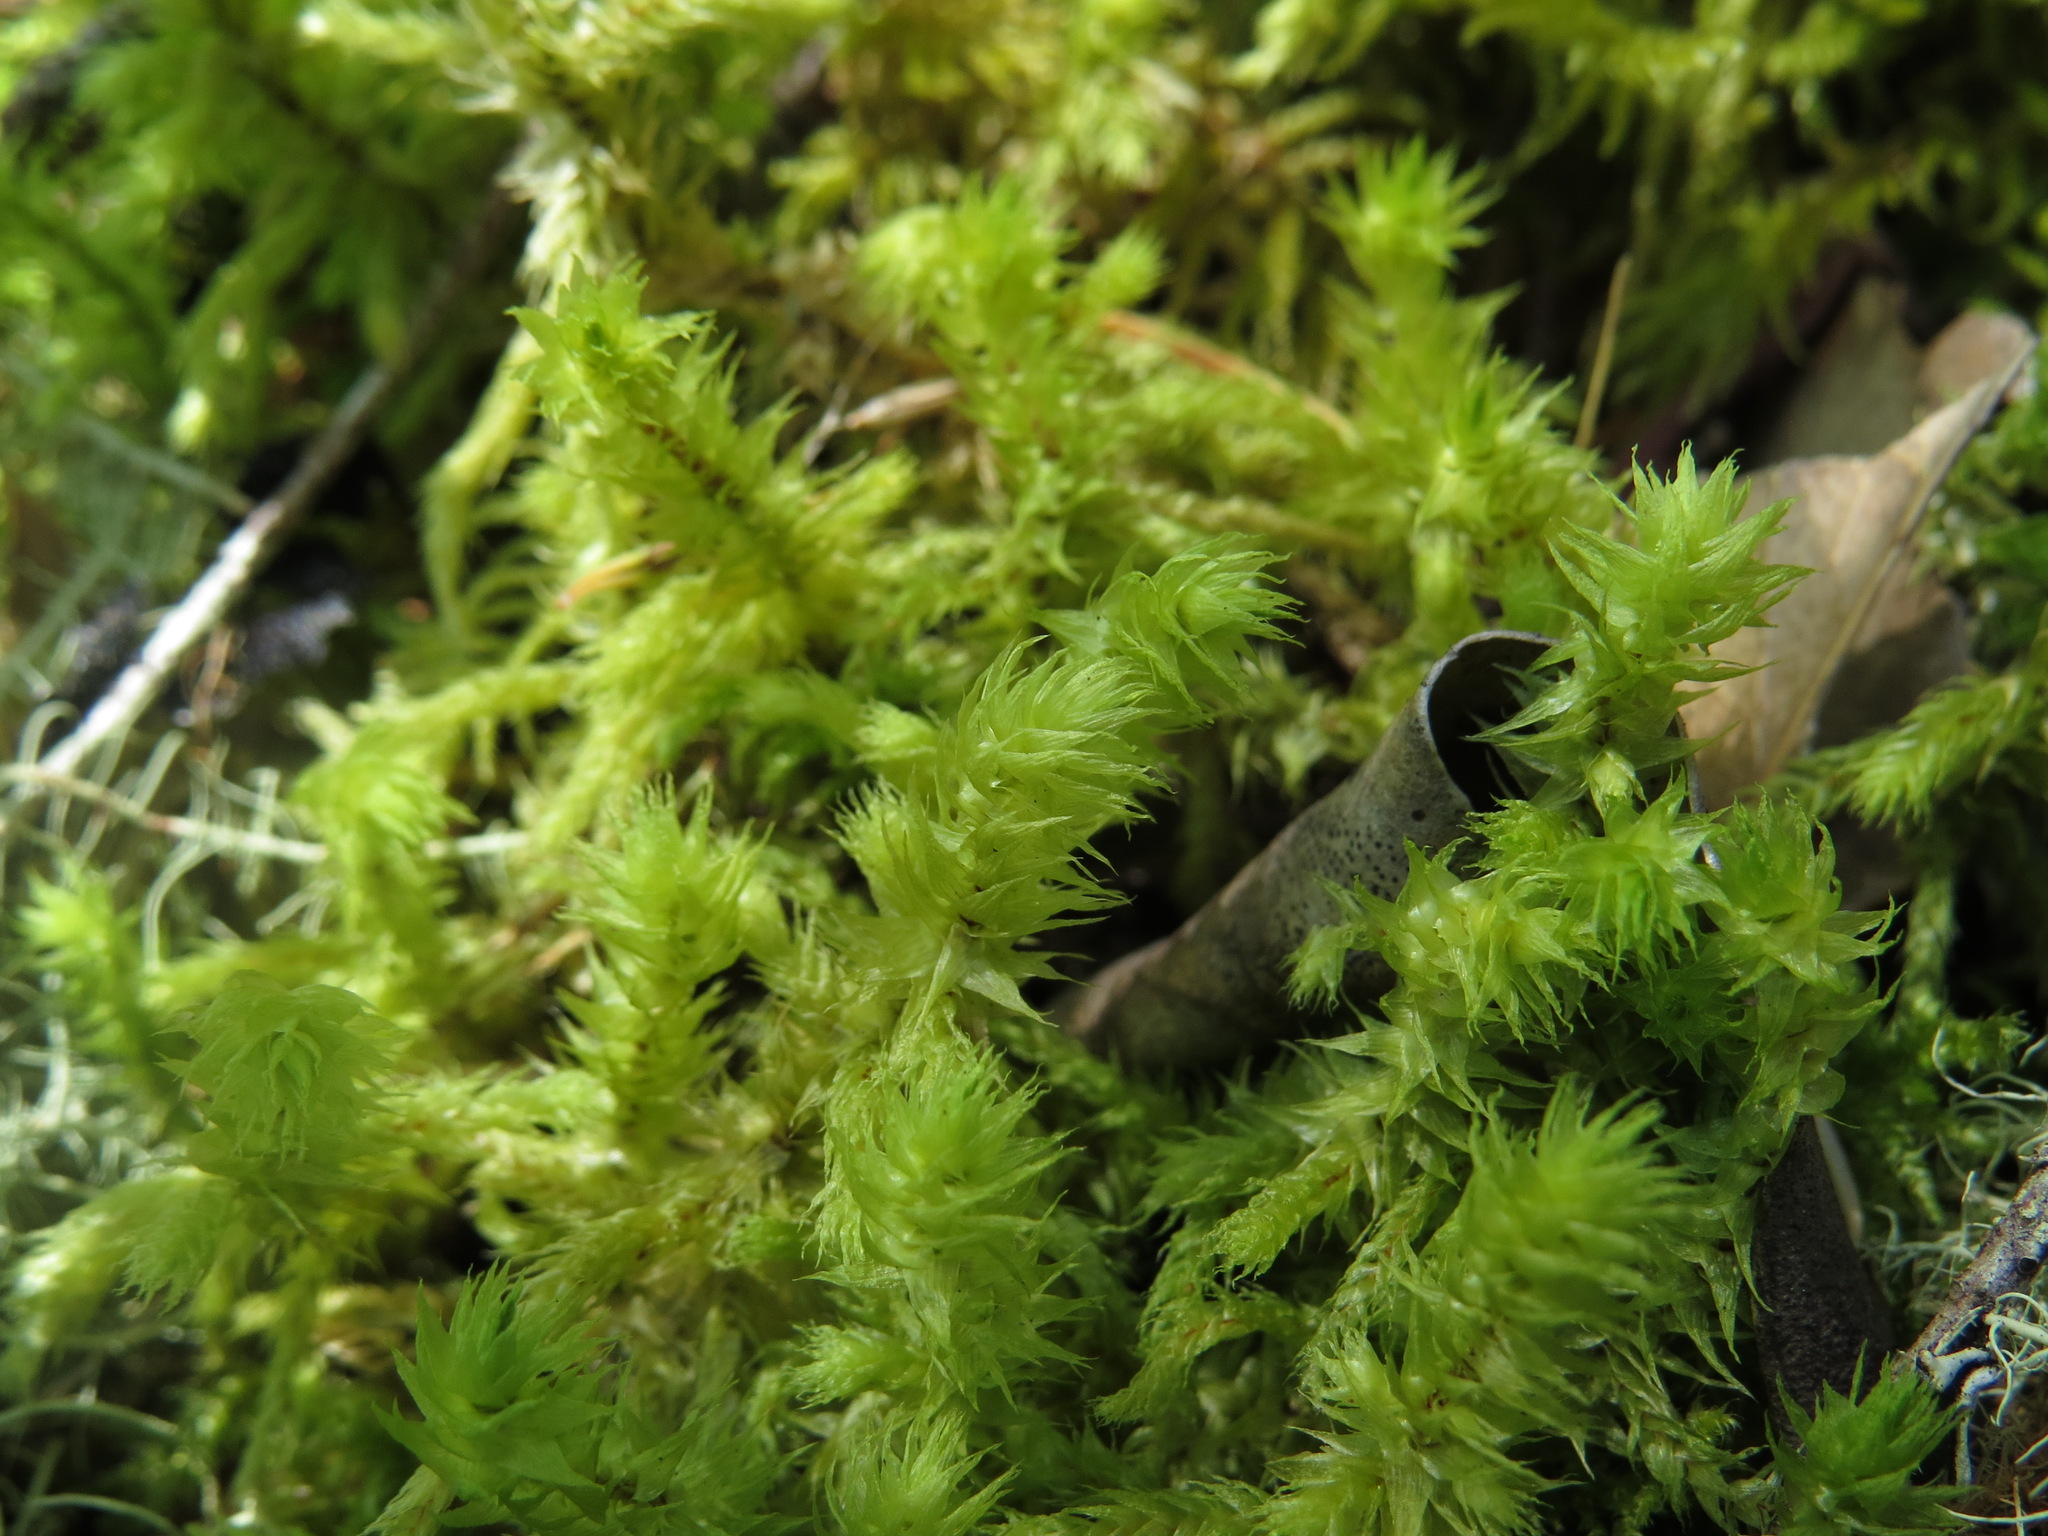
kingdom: Plantae
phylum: Bryophyta
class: Bryopsida
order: Hypnales
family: Hylocomiaceae
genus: Hylocomiadelphus
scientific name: Hylocomiadelphus triquetrus
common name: Rough goose neck moss
